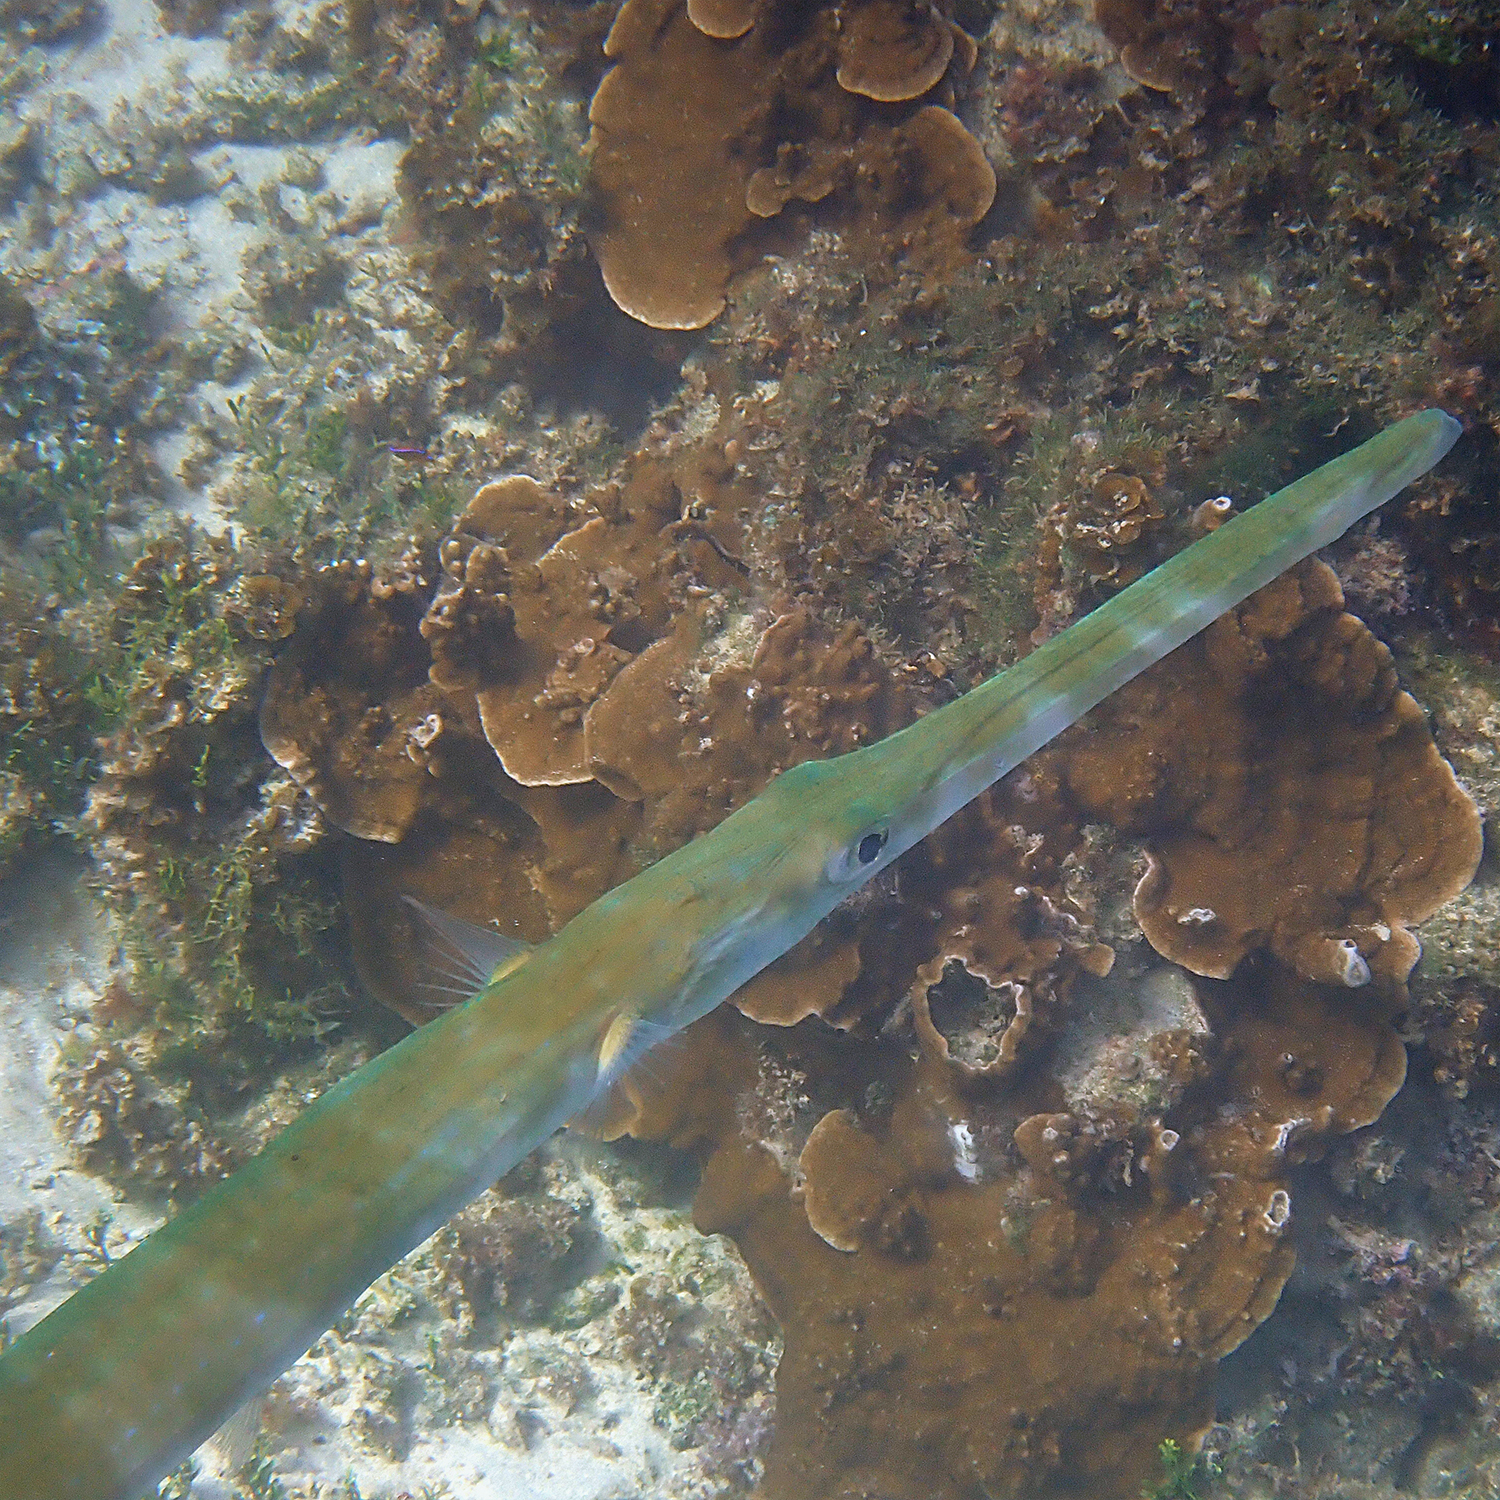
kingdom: Animalia
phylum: Chordata
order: Syngnathiformes
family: Fistulariidae
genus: Fistularia
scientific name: Fistularia commersonii
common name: Bluespotted cornetfish
